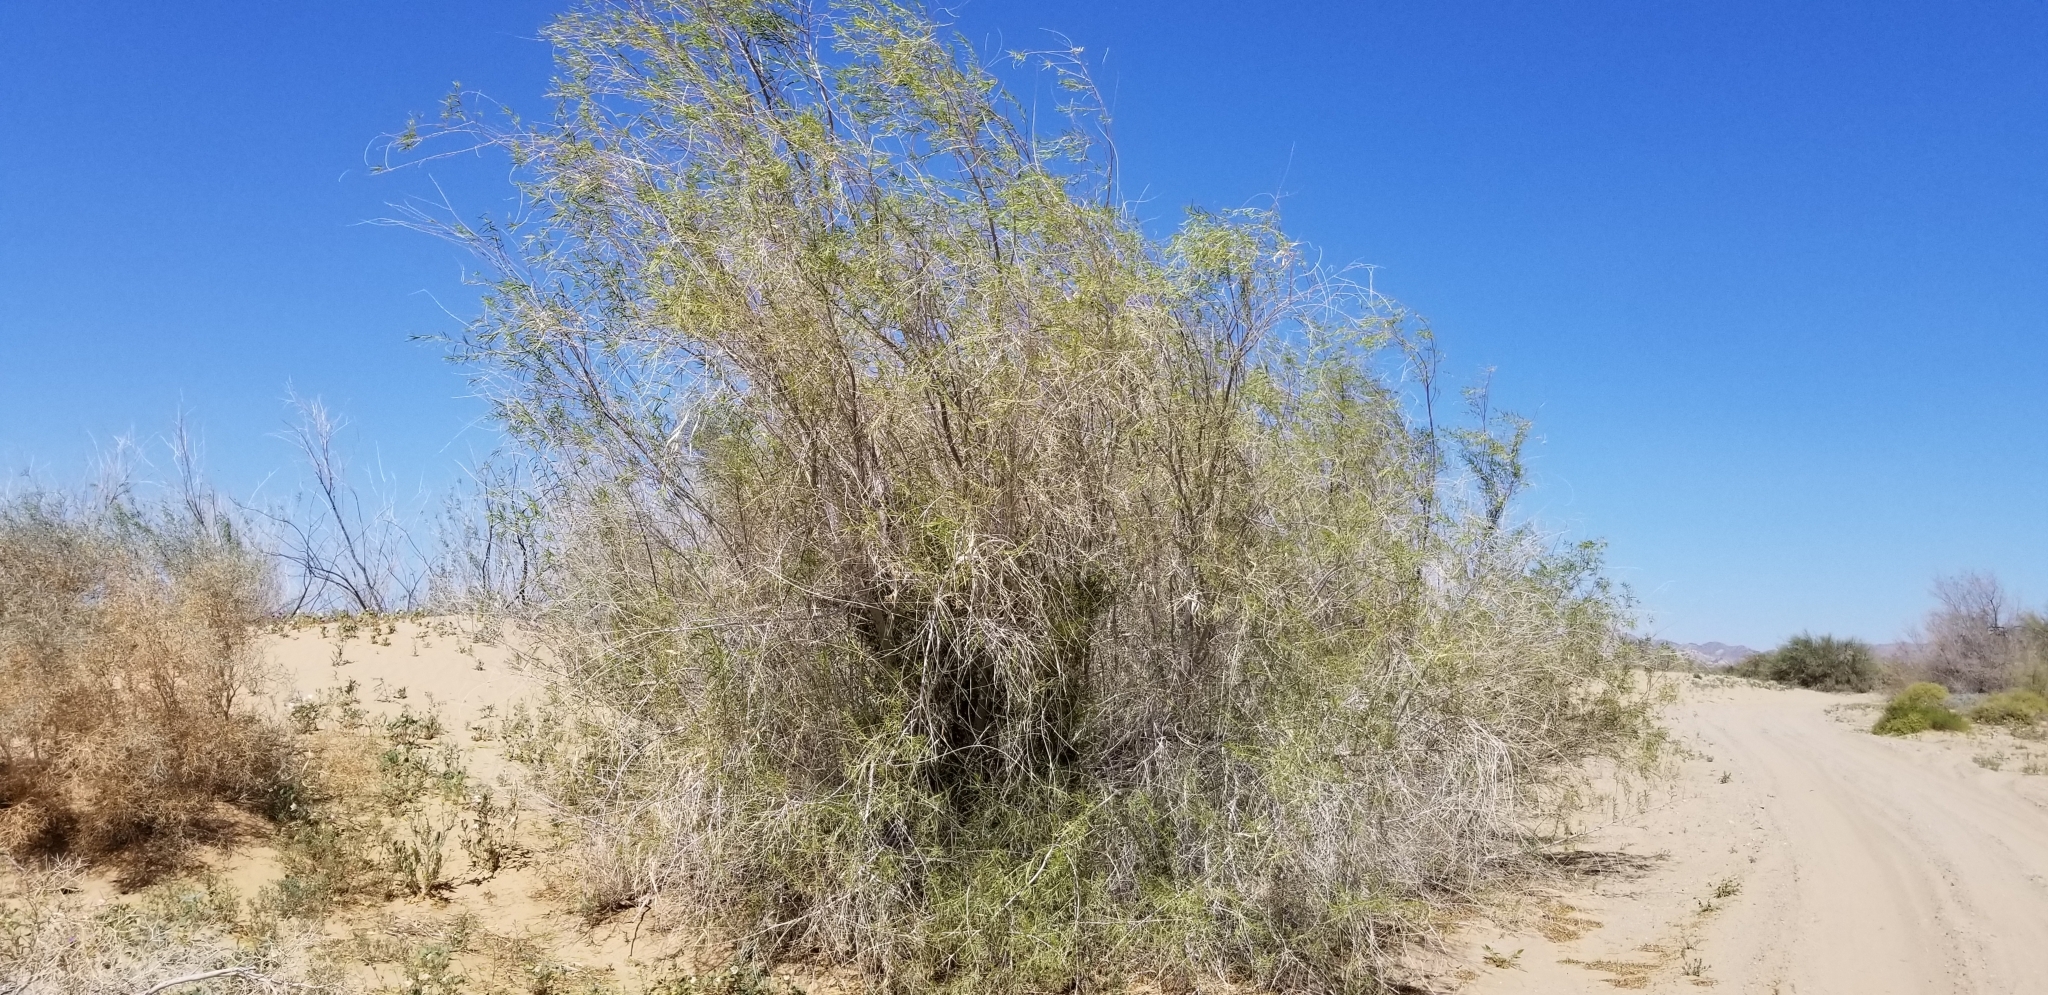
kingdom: Plantae
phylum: Tracheophyta
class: Magnoliopsida
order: Lamiales
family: Bignoniaceae
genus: Chilopsis
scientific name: Chilopsis linearis
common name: Desert-willow
